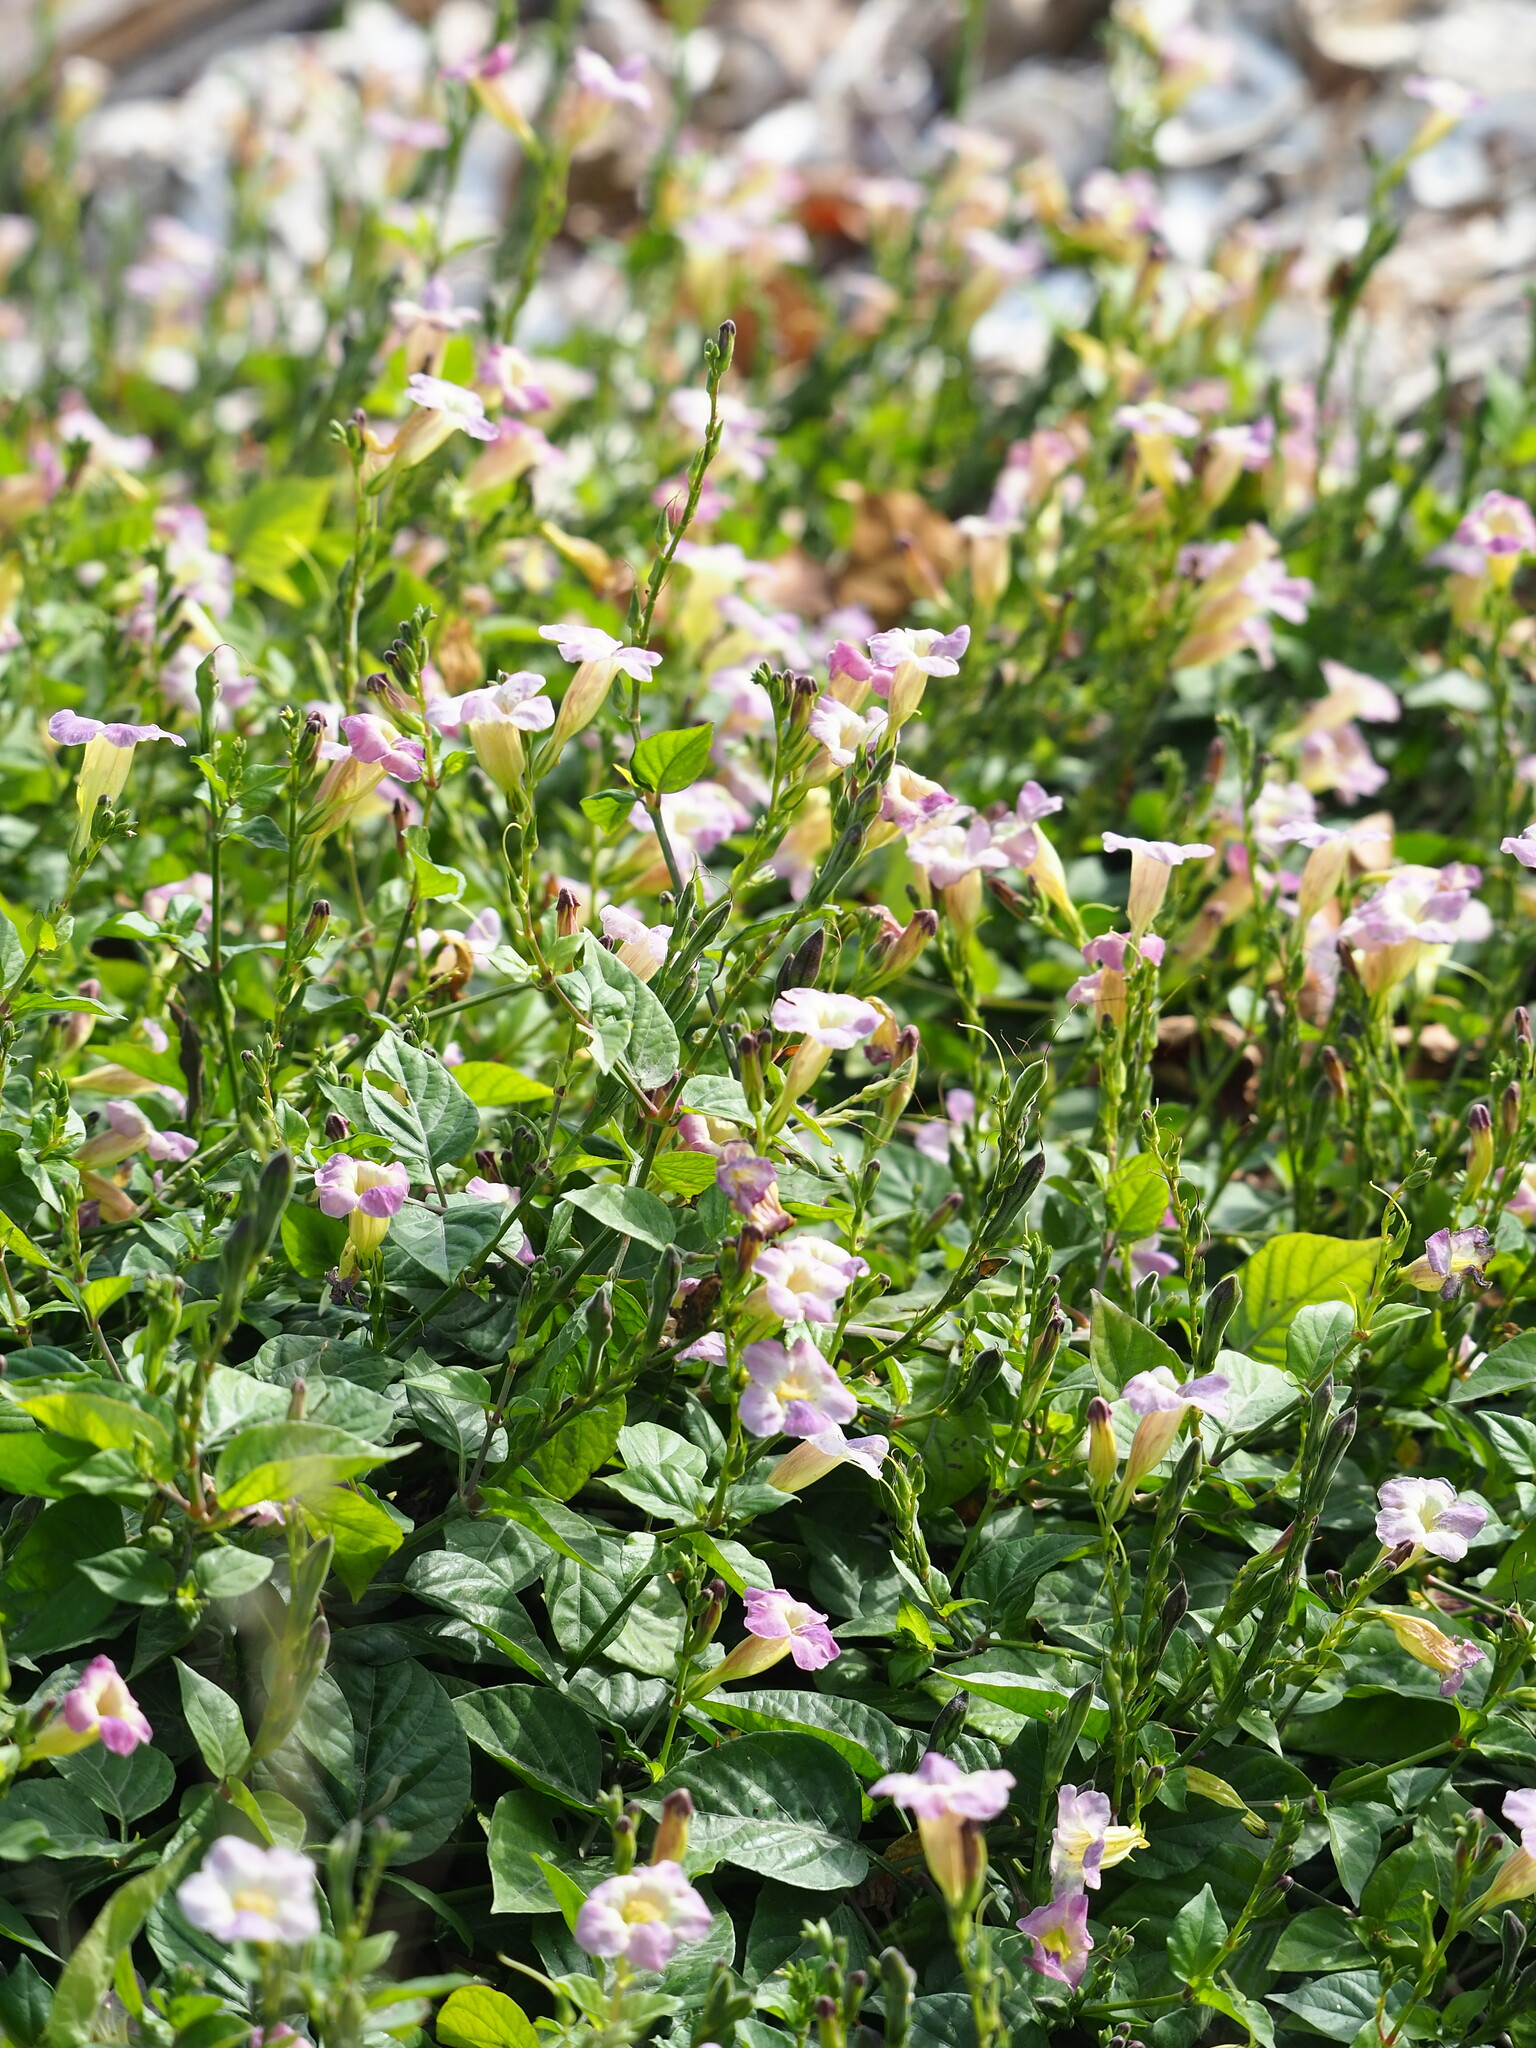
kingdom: Plantae
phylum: Tracheophyta
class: Magnoliopsida
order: Lamiales
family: Acanthaceae
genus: Asystasia
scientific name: Asystasia gangetica
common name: Chinese violet
